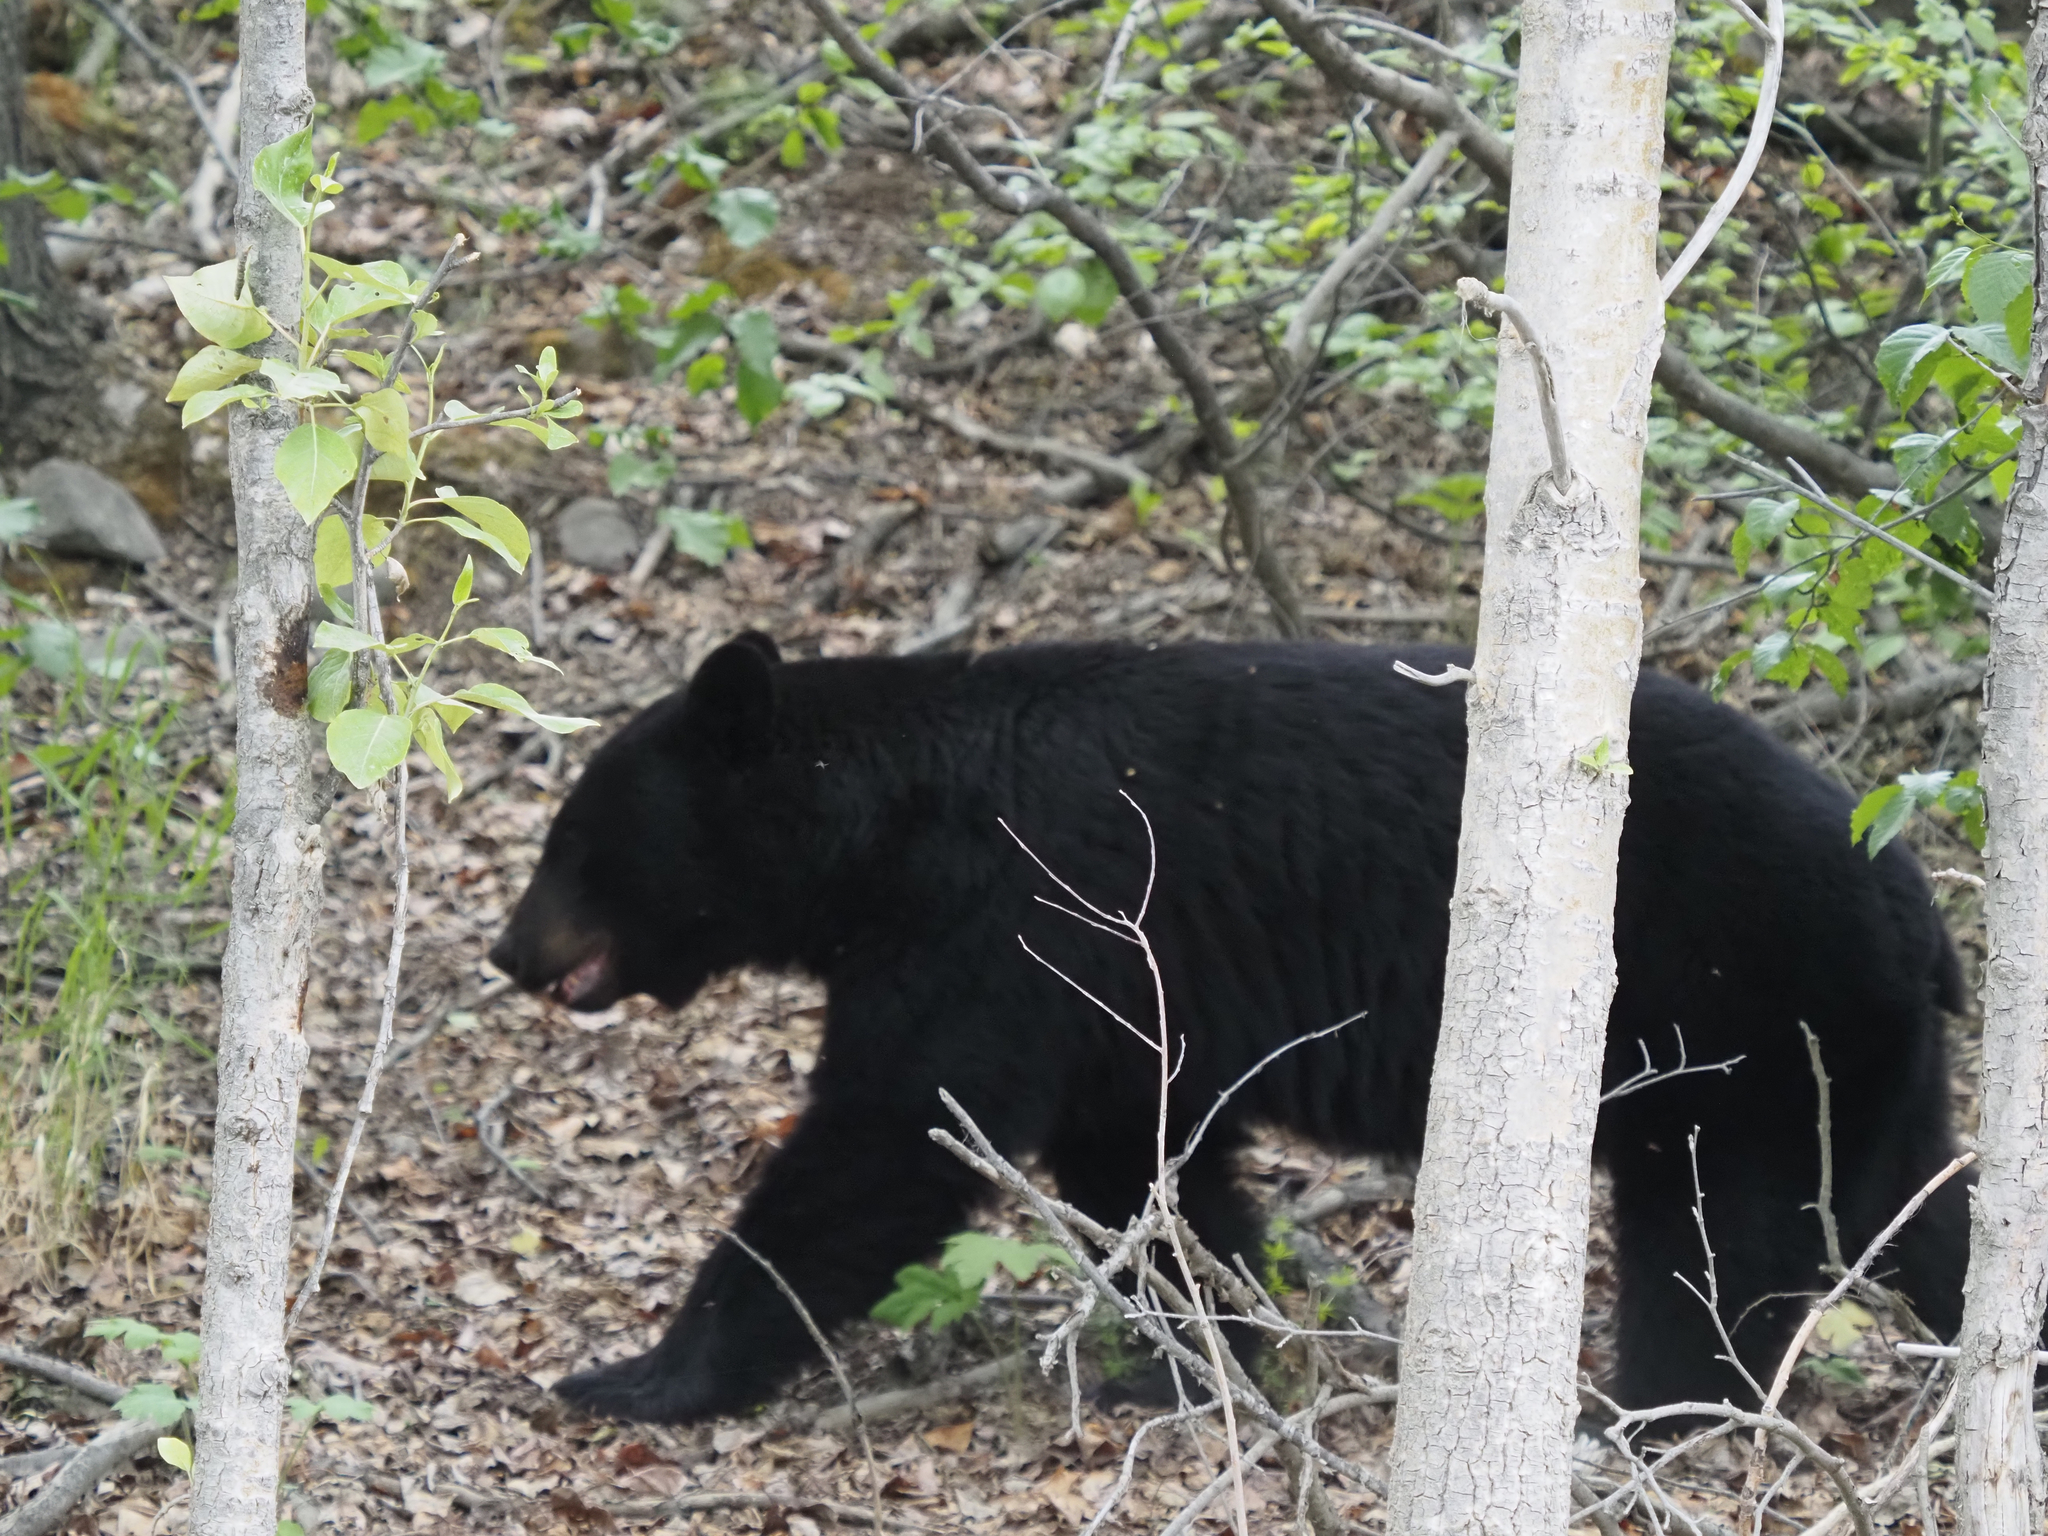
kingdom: Animalia
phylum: Chordata
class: Mammalia
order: Carnivora
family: Ursidae
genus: Ursus
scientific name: Ursus americanus
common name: American black bear
